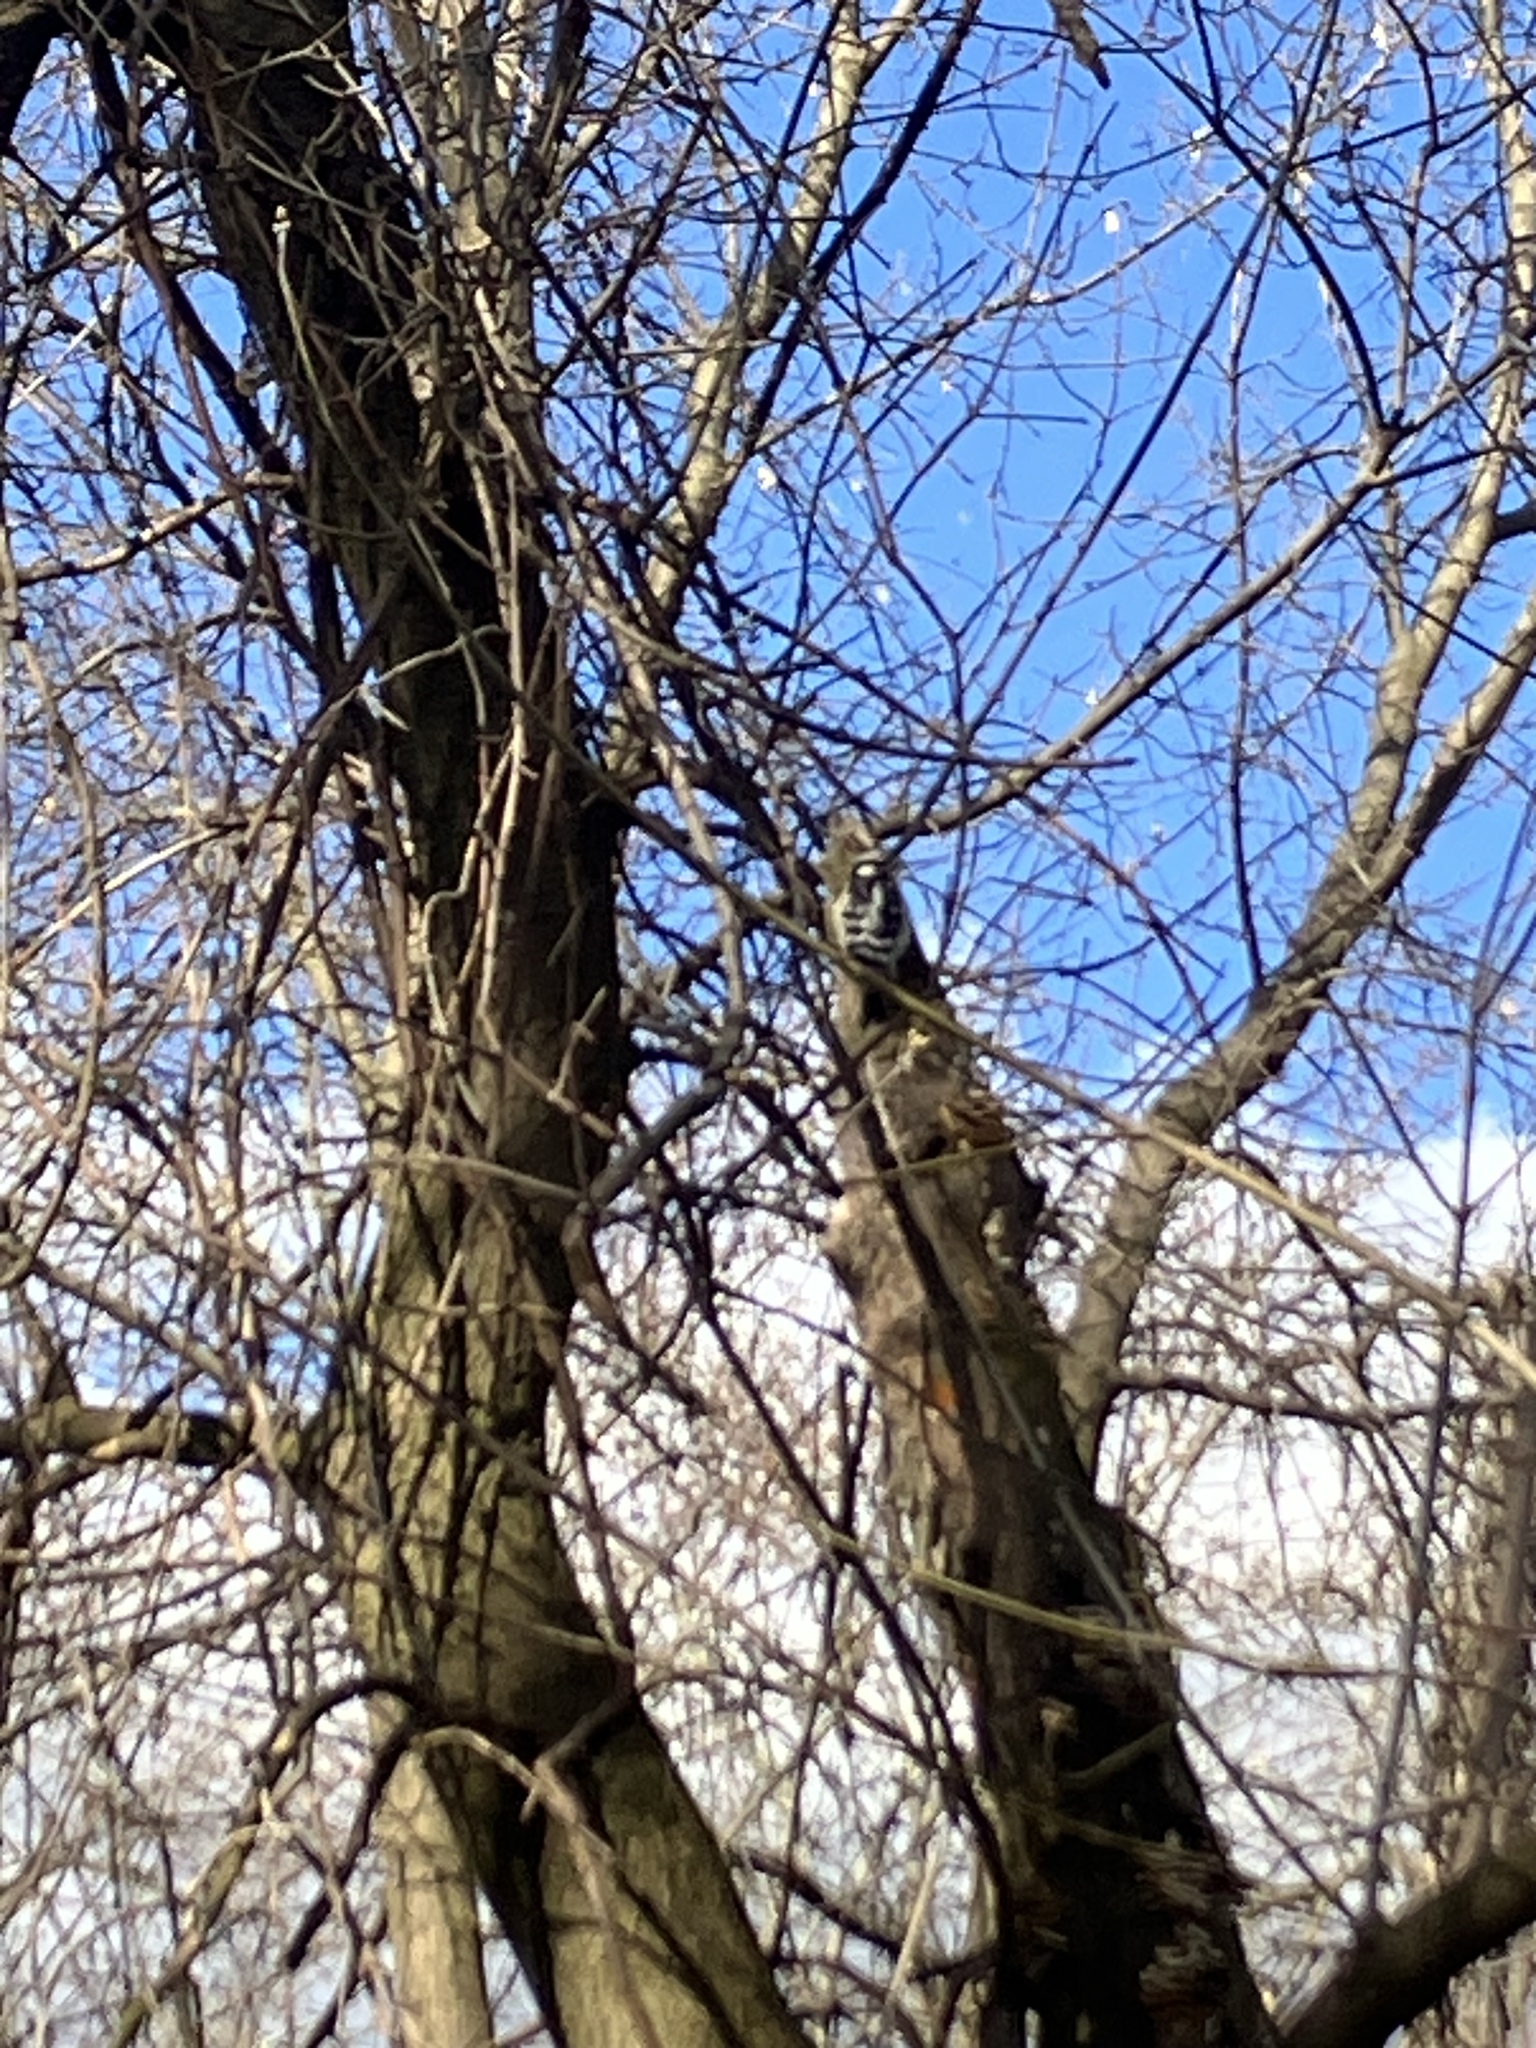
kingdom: Animalia
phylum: Chordata
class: Aves
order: Piciformes
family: Picidae
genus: Dryobates
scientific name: Dryobates pubescens
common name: Downy woodpecker
